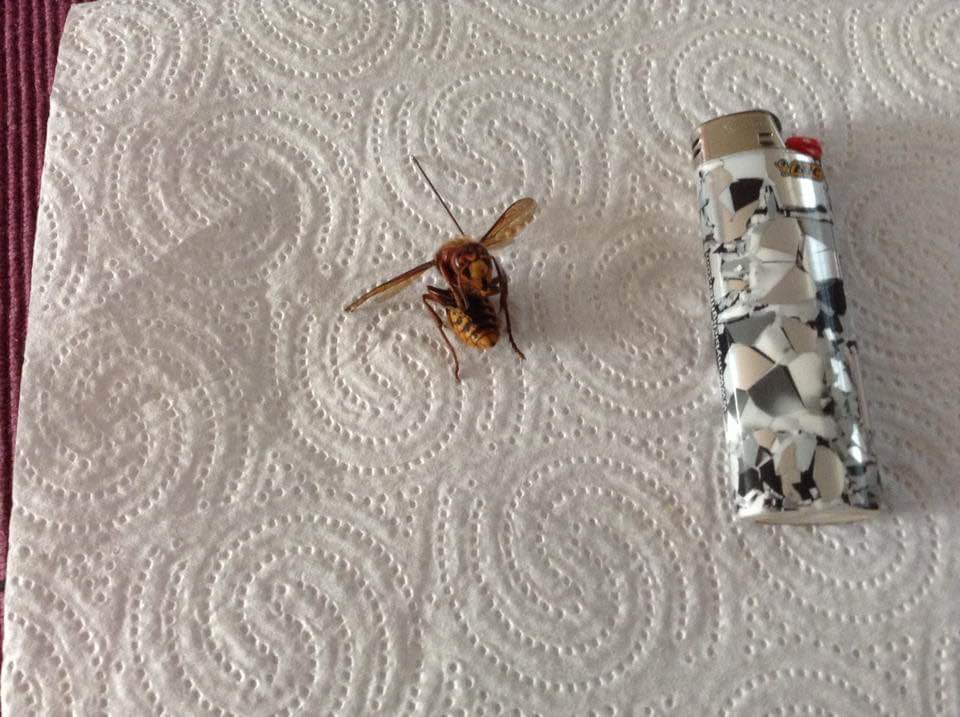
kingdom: Animalia
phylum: Arthropoda
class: Insecta
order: Hymenoptera
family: Vespidae
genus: Vespa
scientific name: Vespa crabro
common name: Hornet
